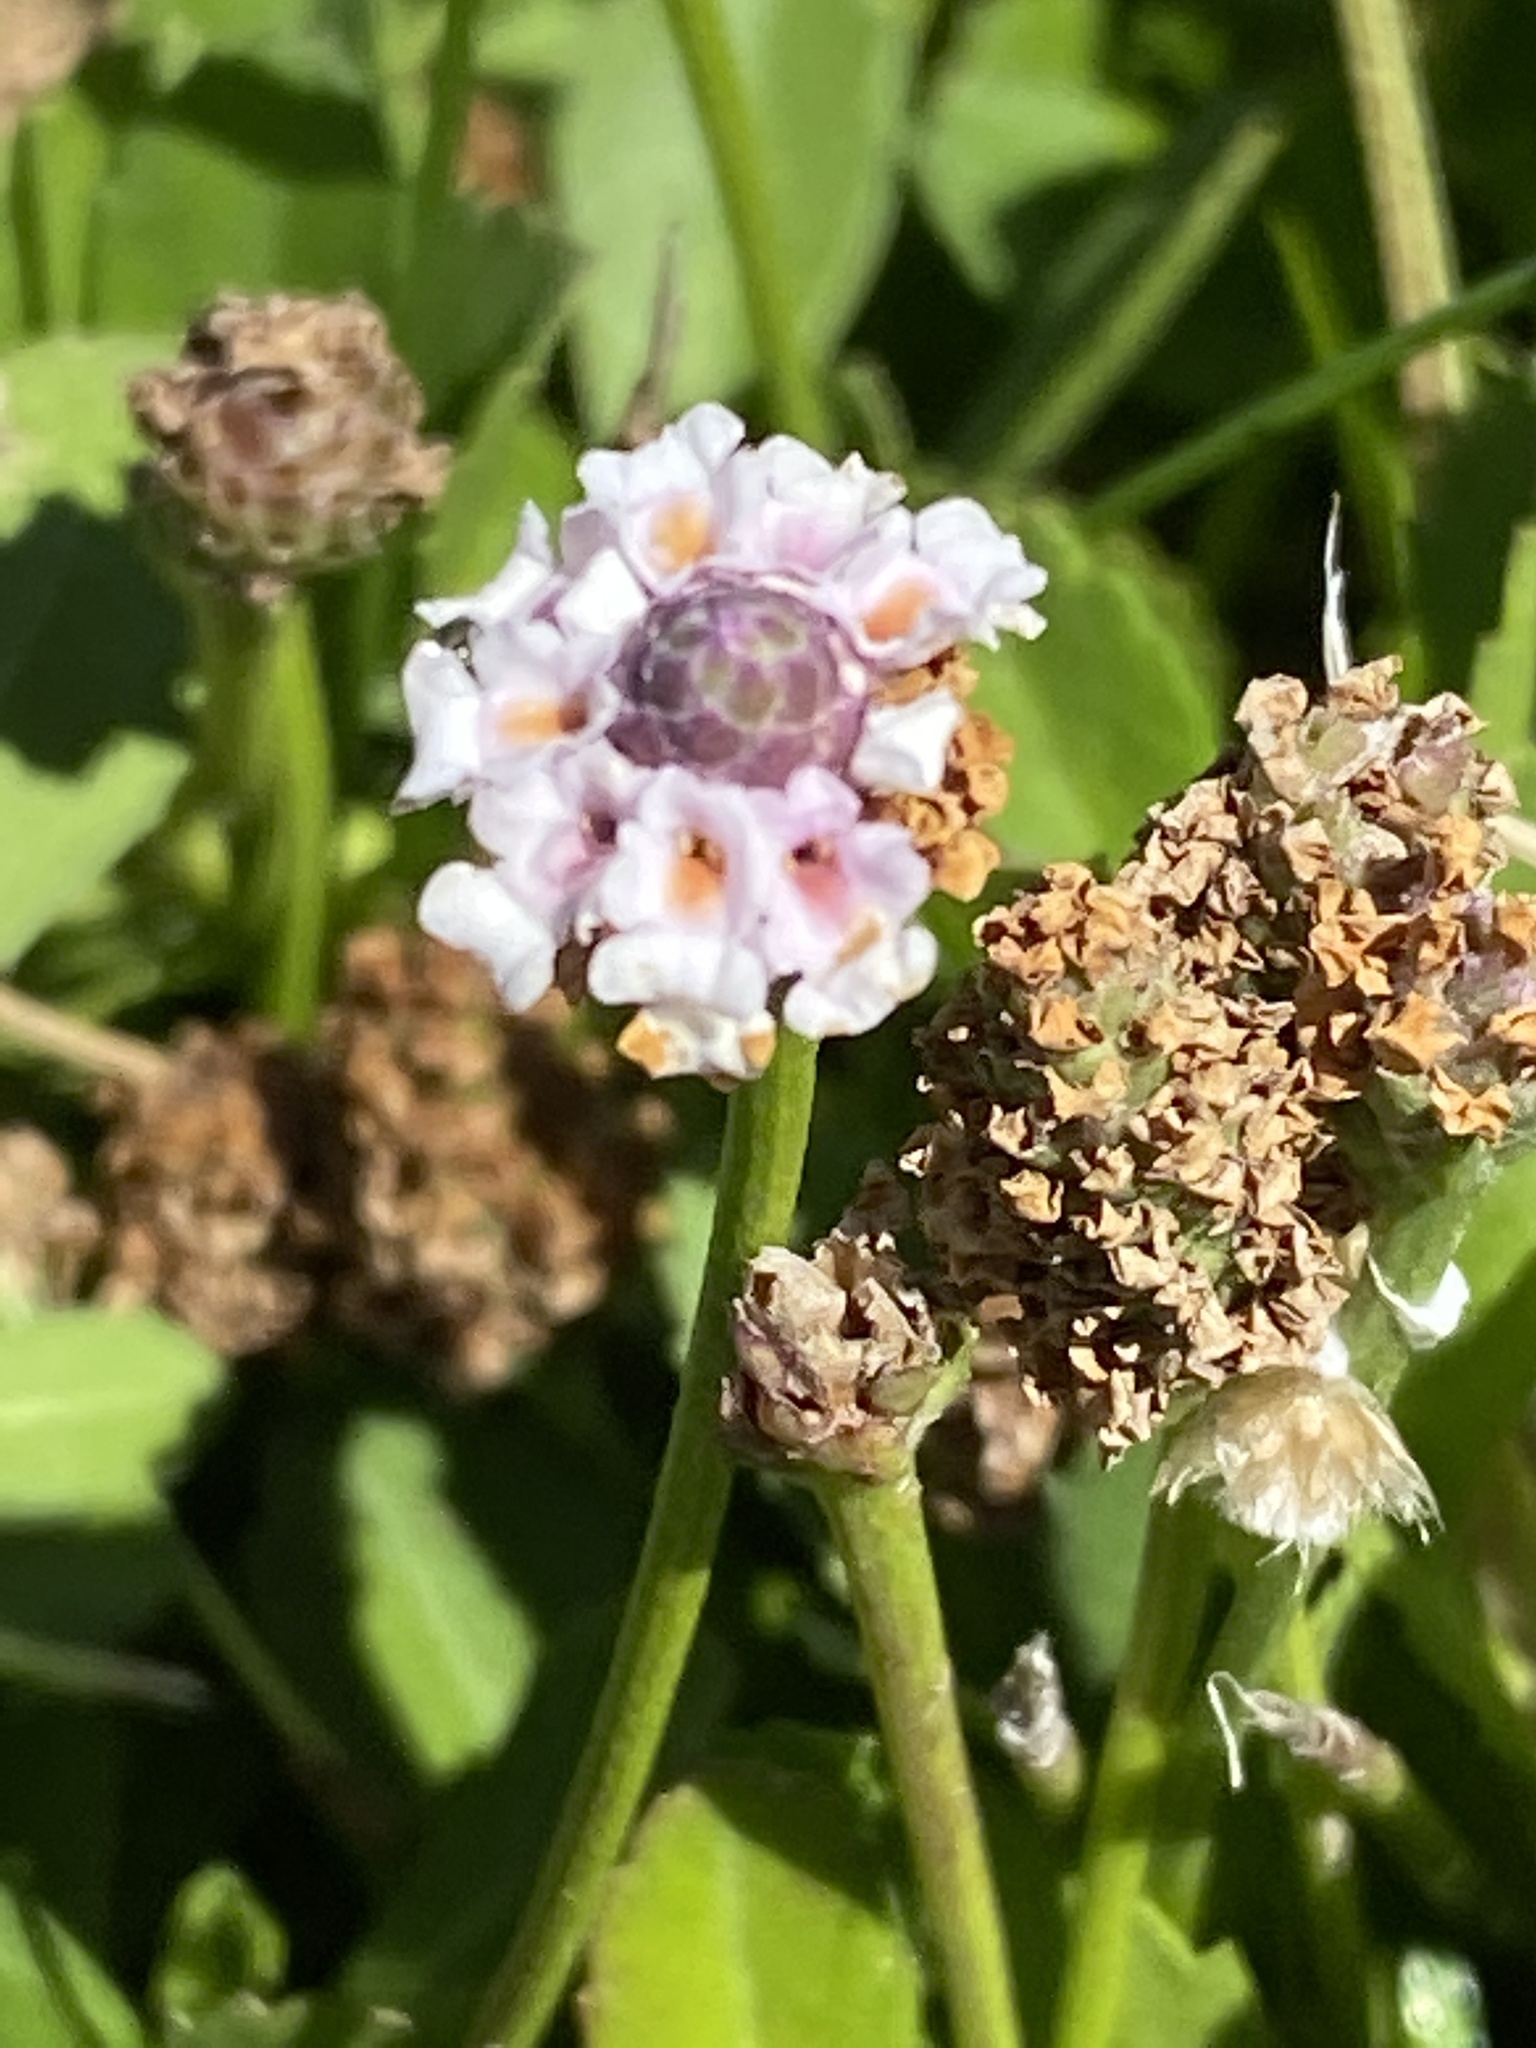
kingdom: Plantae
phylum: Tracheophyta
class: Magnoliopsida
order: Lamiales
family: Verbenaceae
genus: Phyla
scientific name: Phyla nodiflora
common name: Frogfruit
